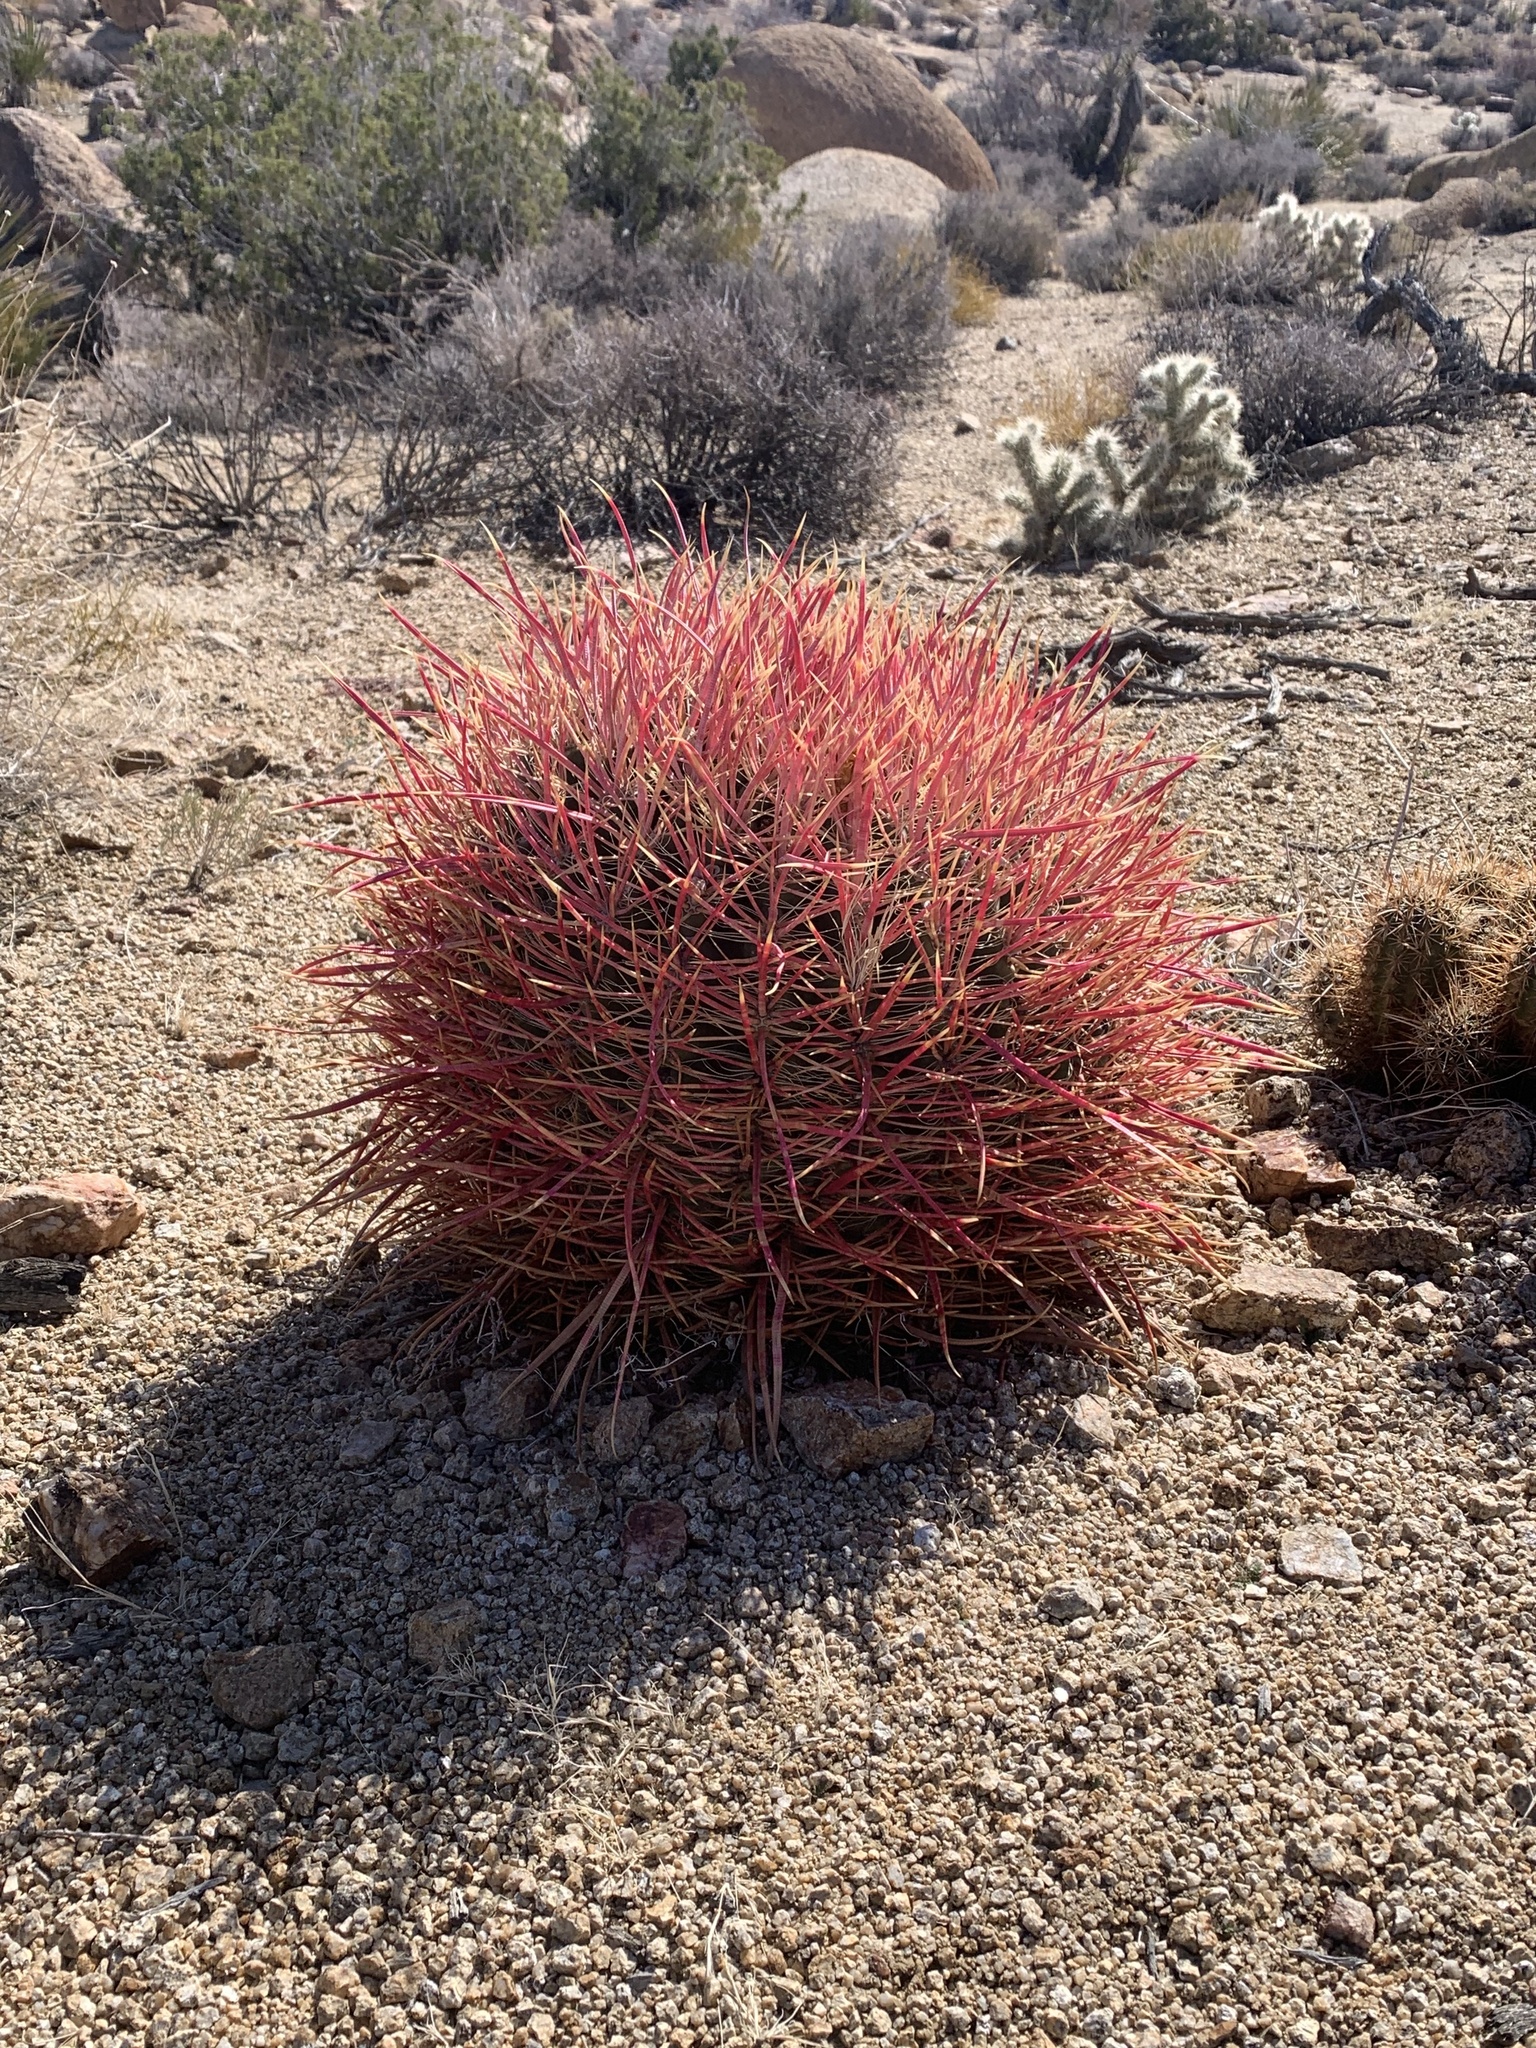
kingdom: Plantae
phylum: Tracheophyta
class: Magnoliopsida
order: Caryophyllales
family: Cactaceae
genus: Ferocactus
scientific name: Ferocactus cylindraceus
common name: California barrel cactus
